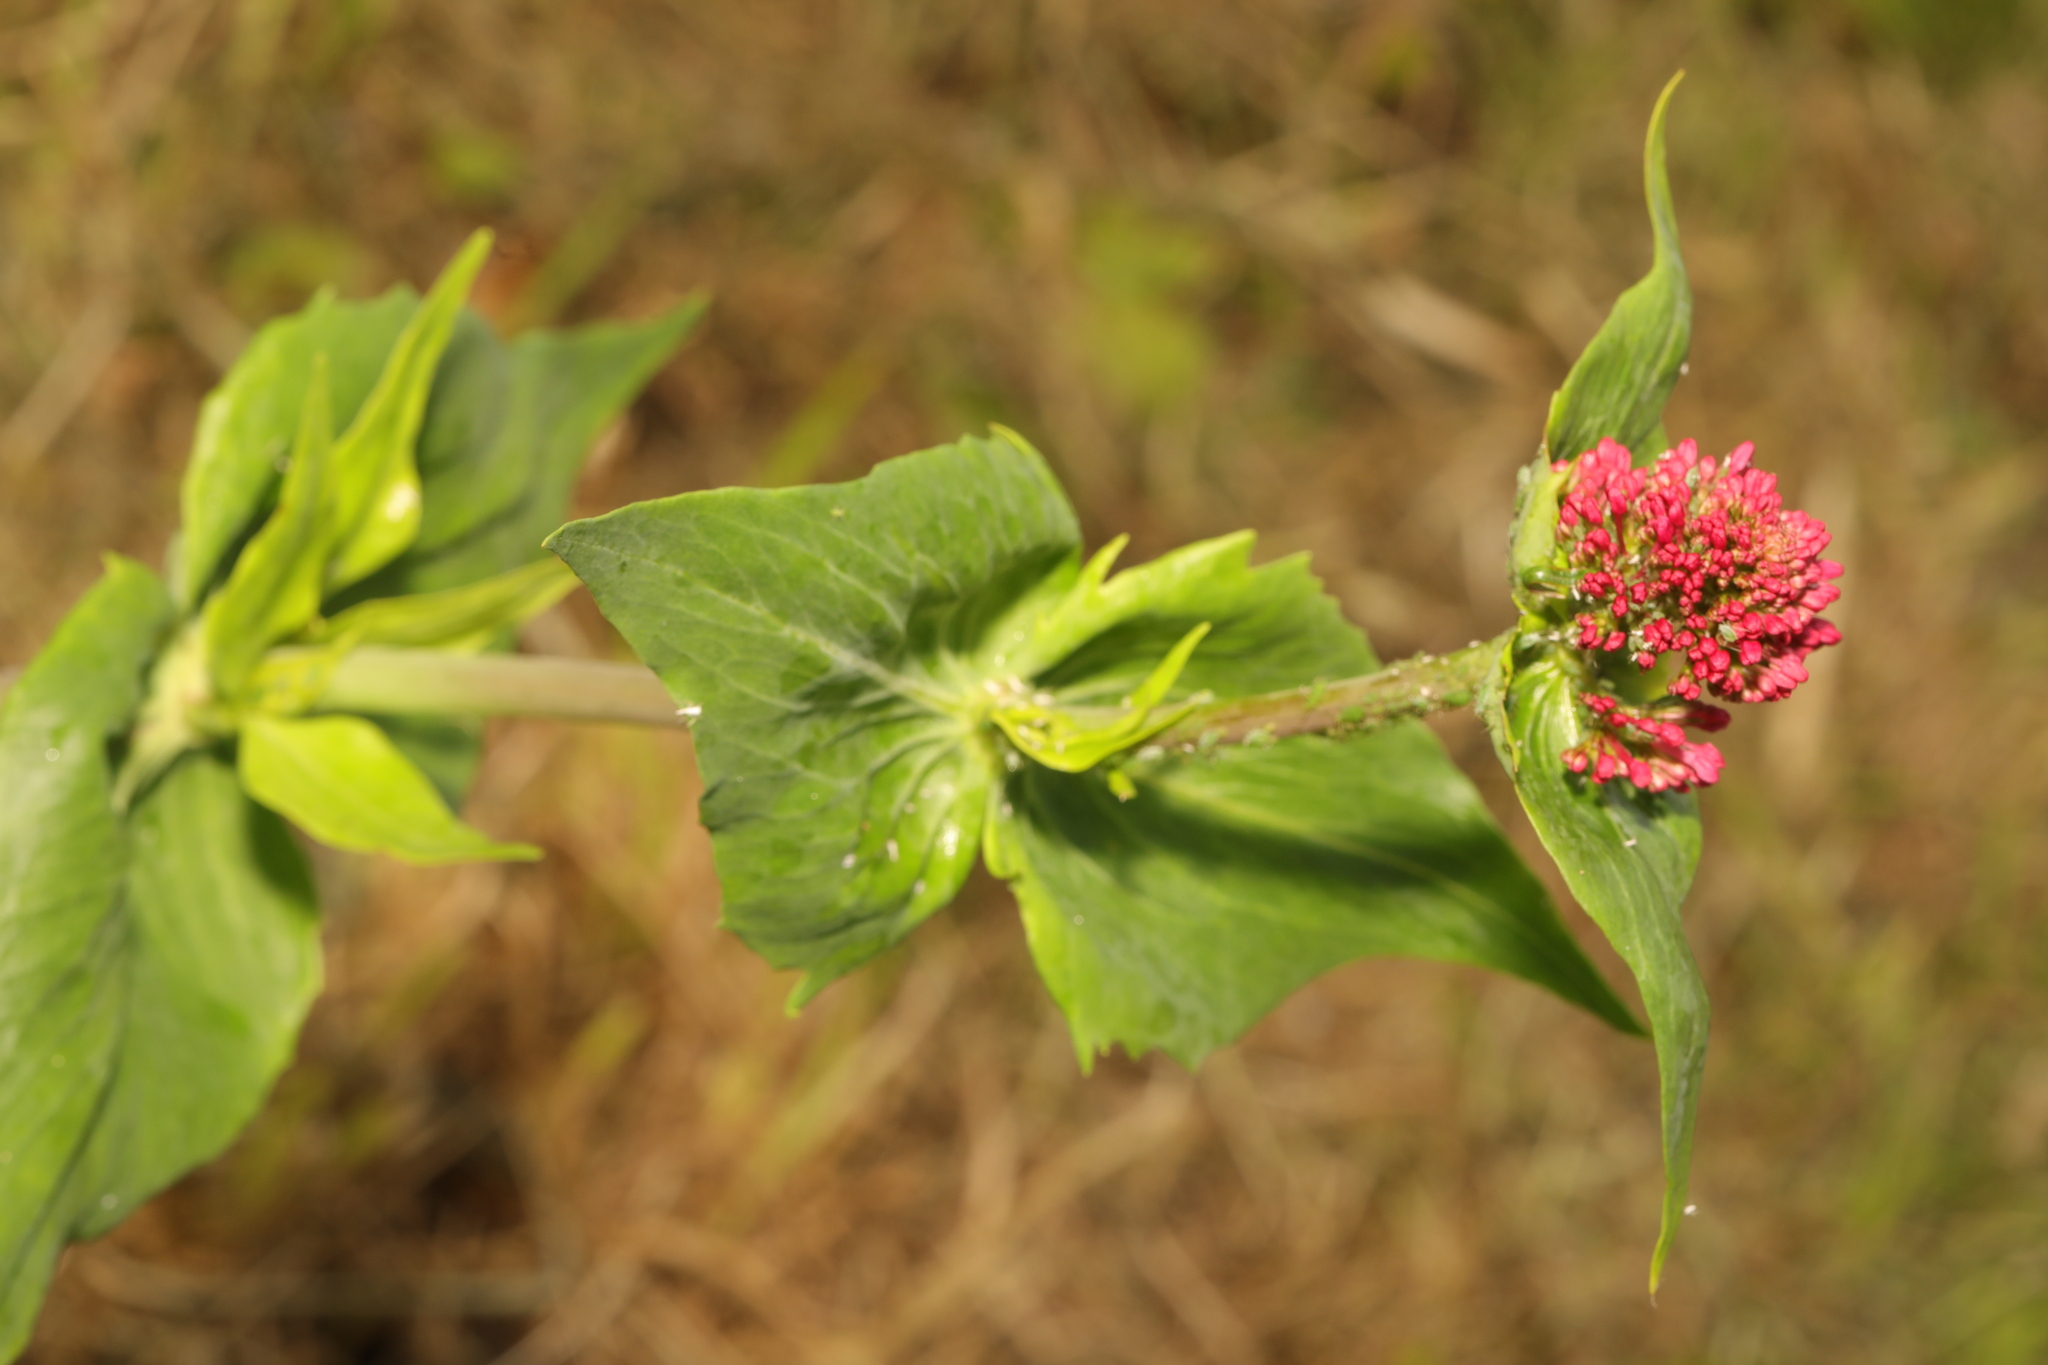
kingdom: Plantae
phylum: Tracheophyta
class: Magnoliopsida
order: Dipsacales
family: Caprifoliaceae
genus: Centranthus
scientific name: Centranthus ruber
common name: Red valerian
